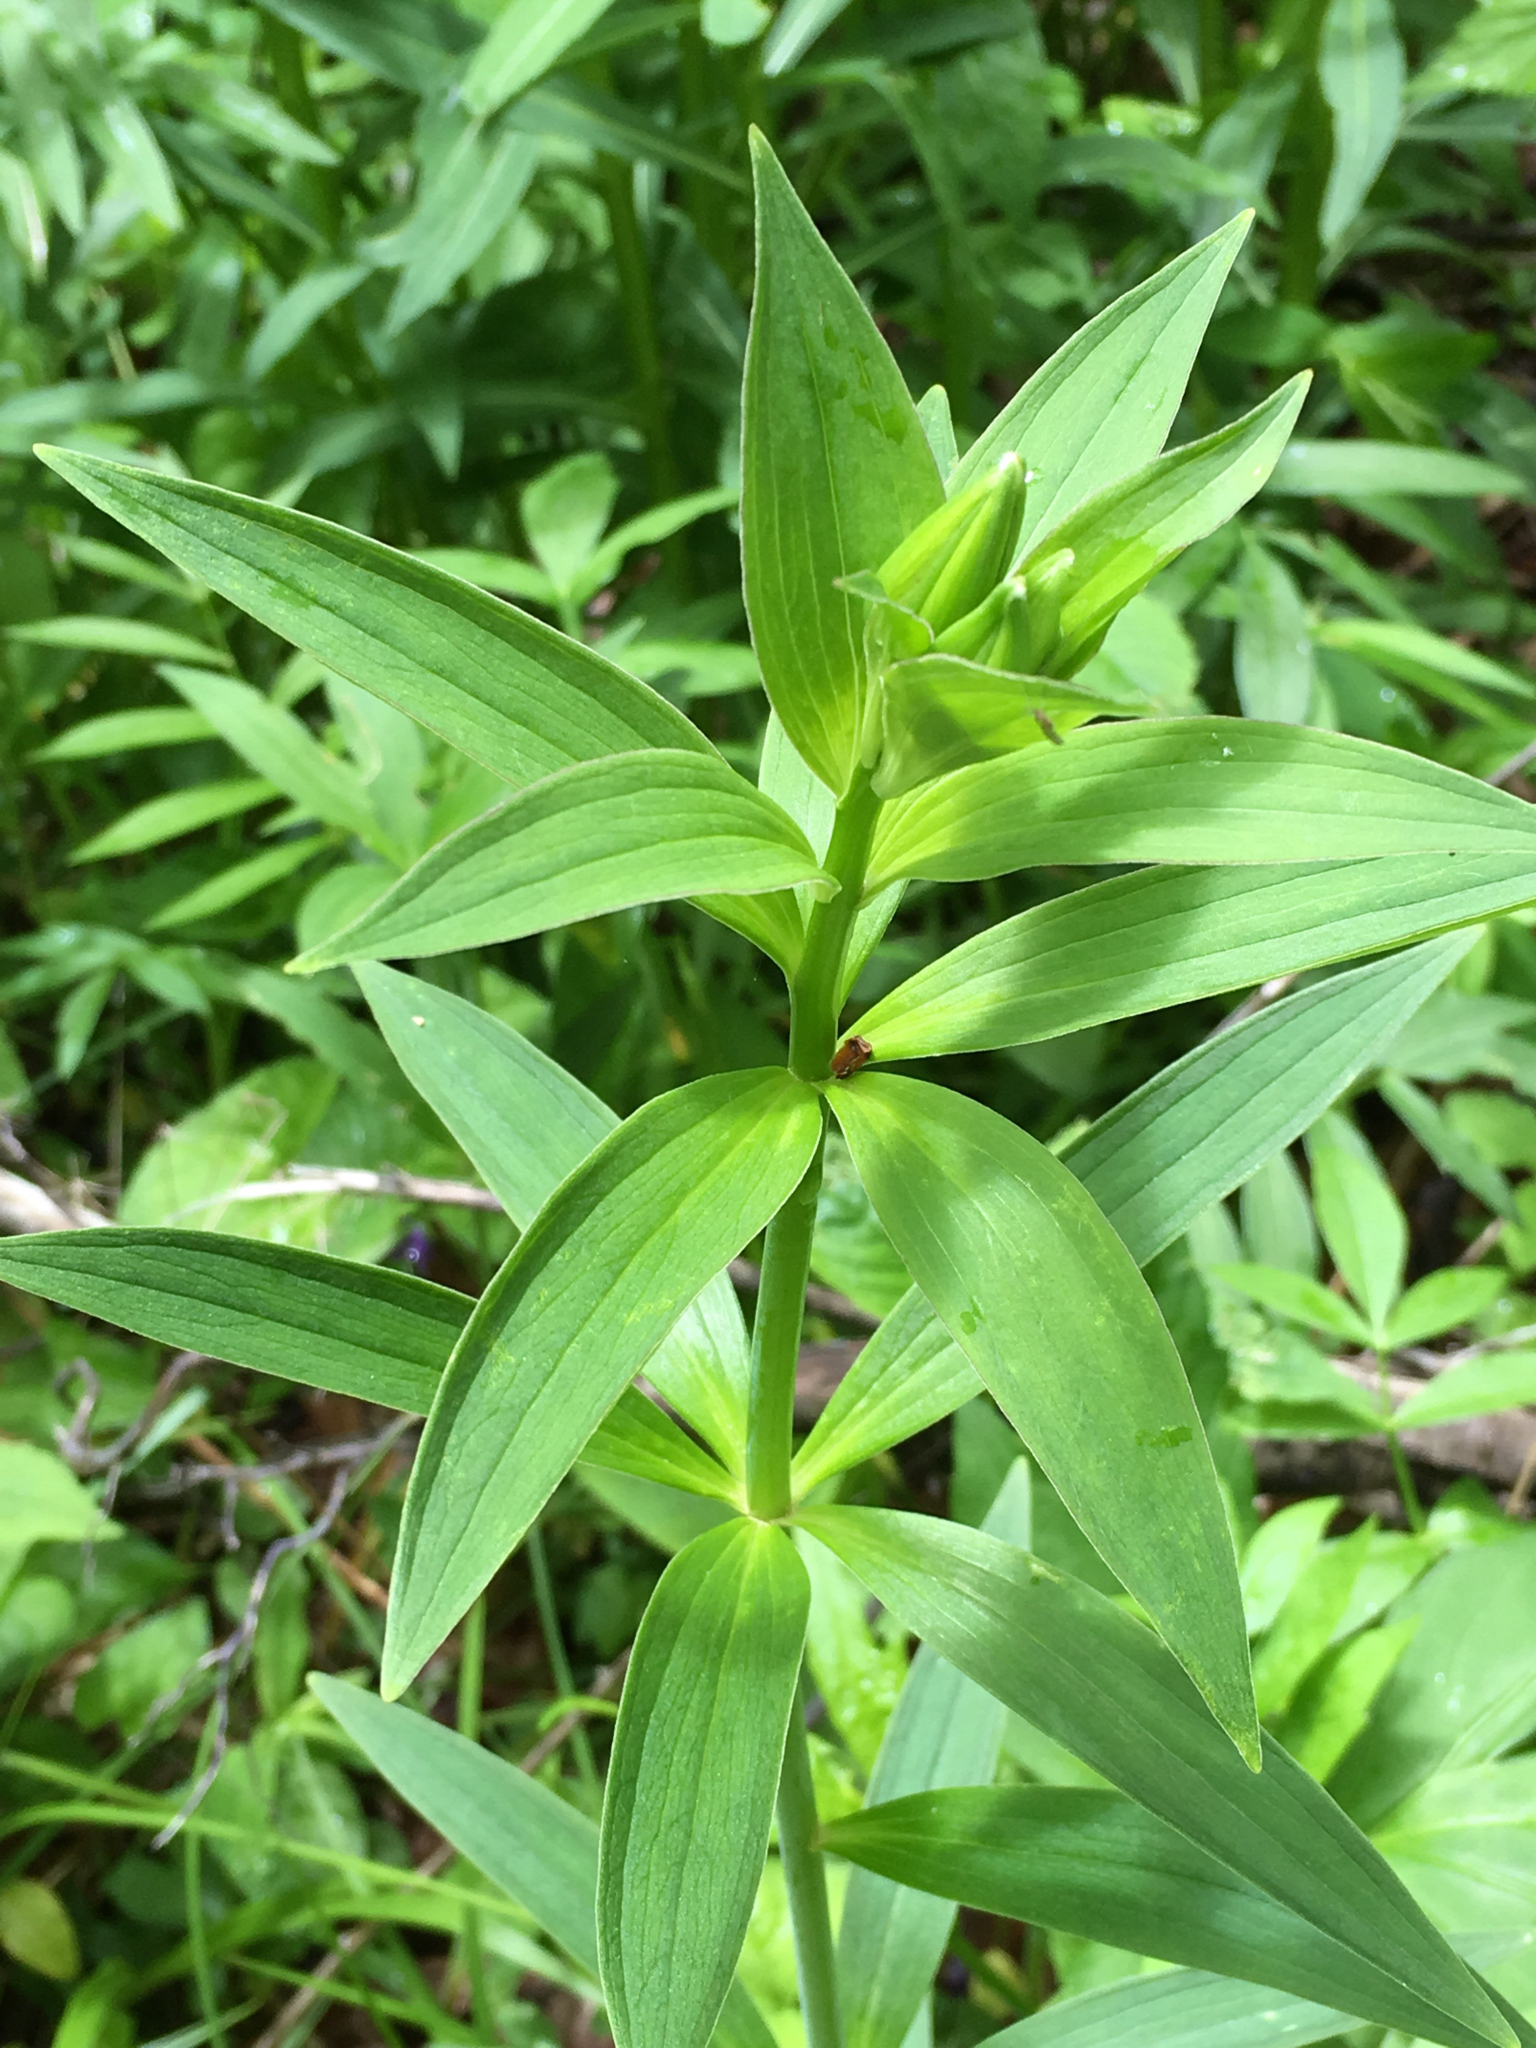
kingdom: Plantae
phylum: Tracheophyta
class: Liliopsida
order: Liliales
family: Liliaceae
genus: Lilium
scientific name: Lilium grayi
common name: Gray's lily
